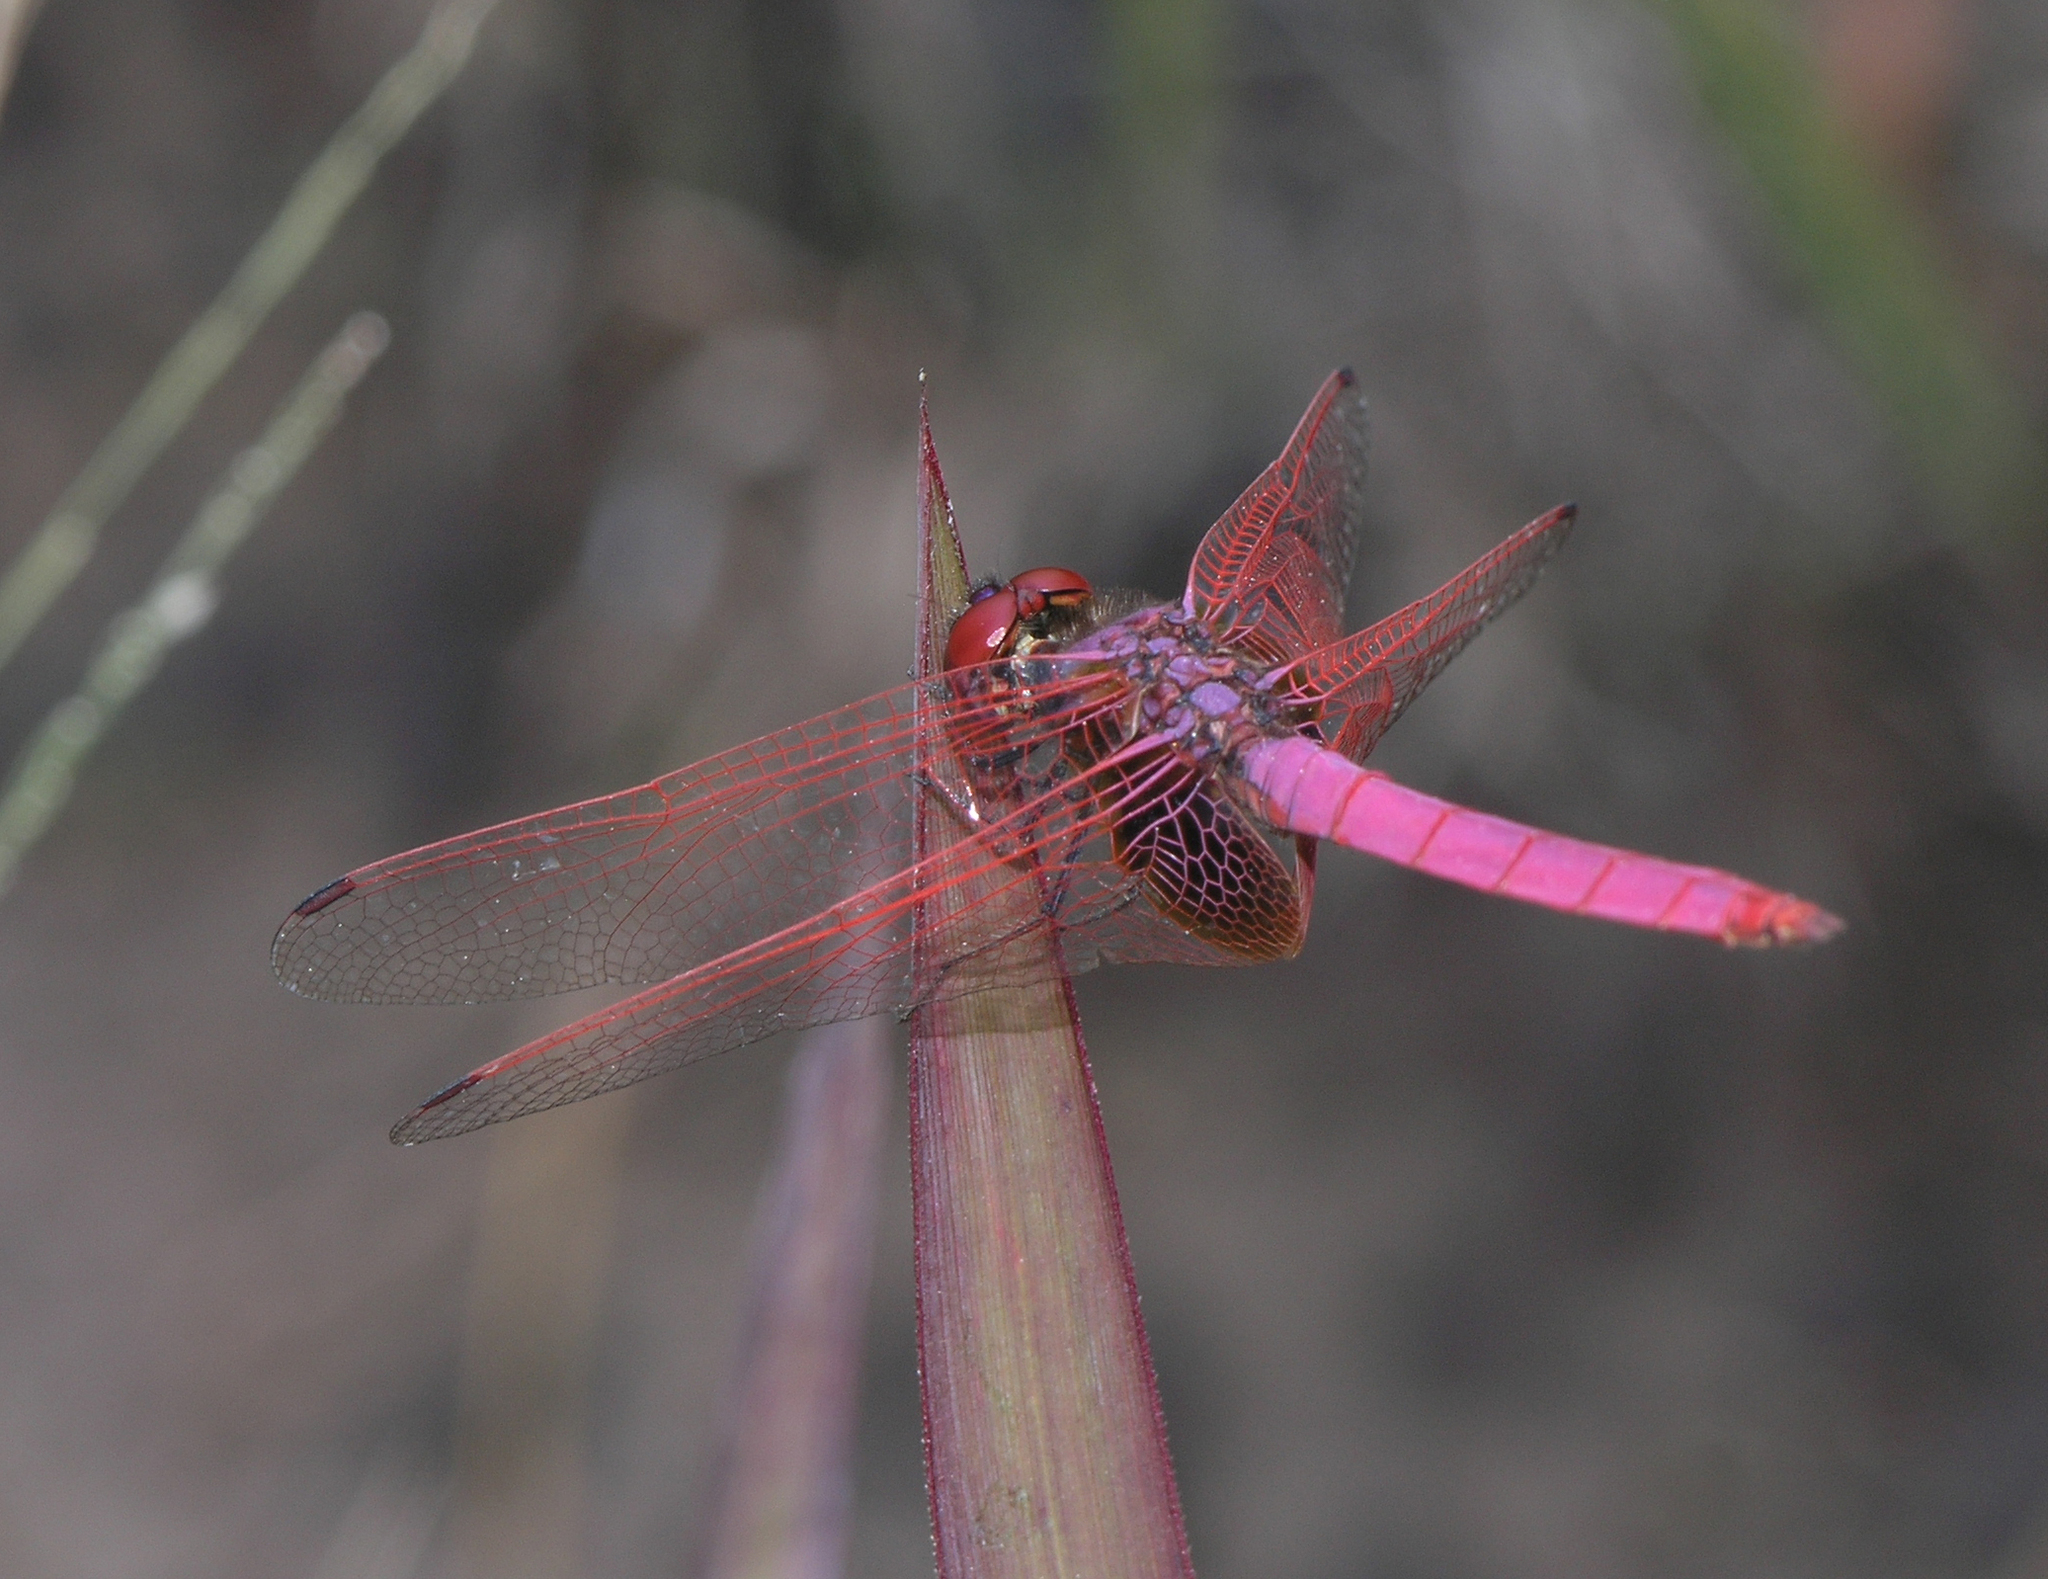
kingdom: Animalia
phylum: Arthropoda
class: Insecta
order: Odonata
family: Libellulidae
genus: Trithemis
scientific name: Trithemis aurora
